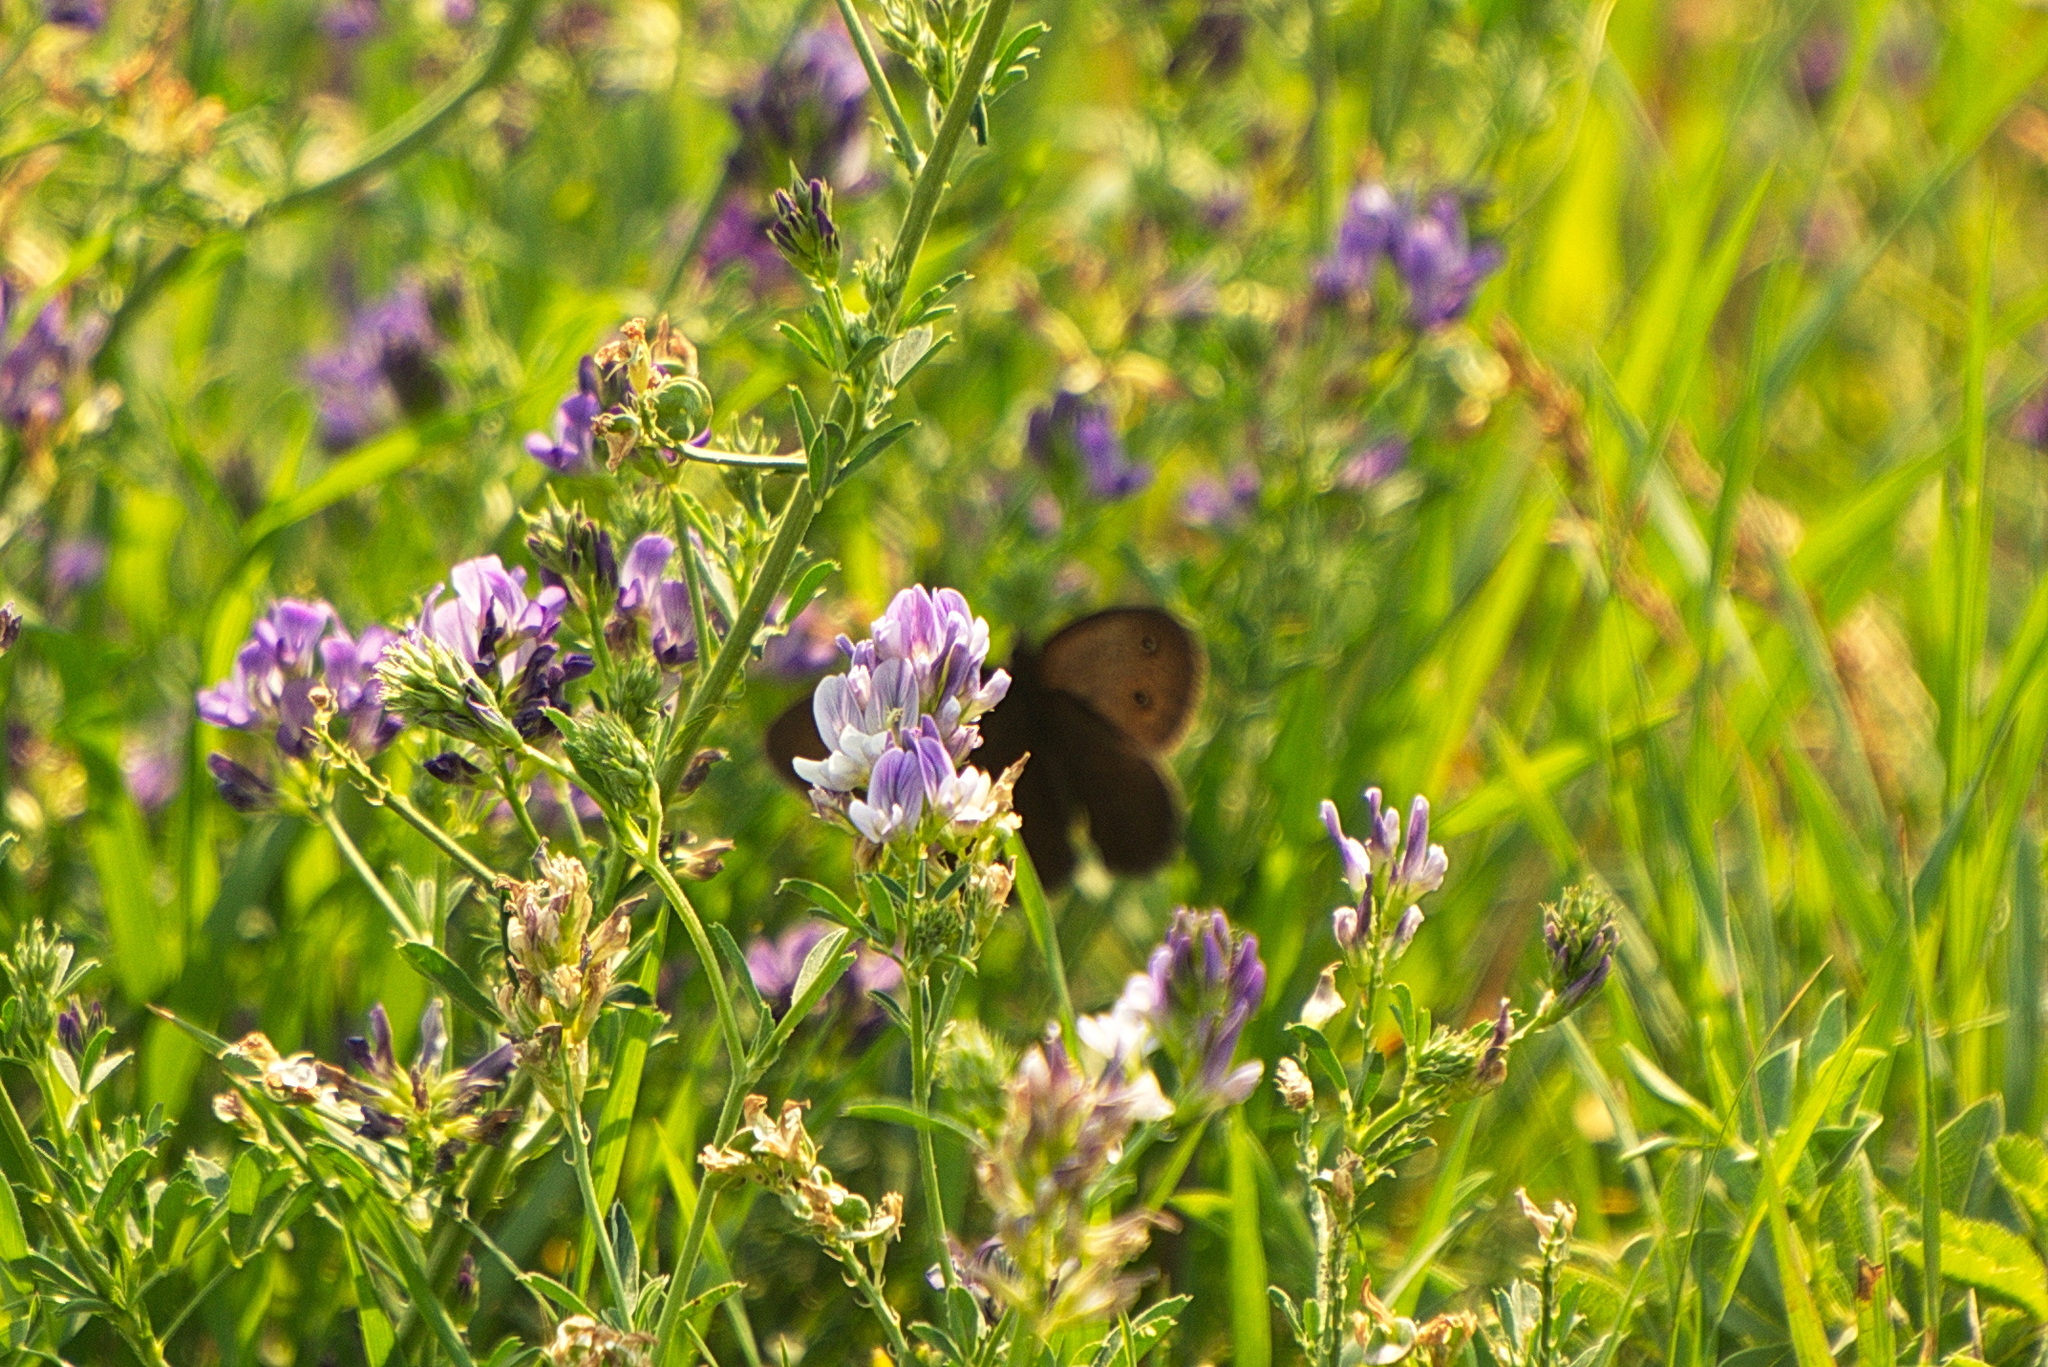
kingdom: Animalia
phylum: Arthropoda
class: Insecta
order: Lepidoptera
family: Nymphalidae
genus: Cercyonis
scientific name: Cercyonis pegala
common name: Common wood-nymph
